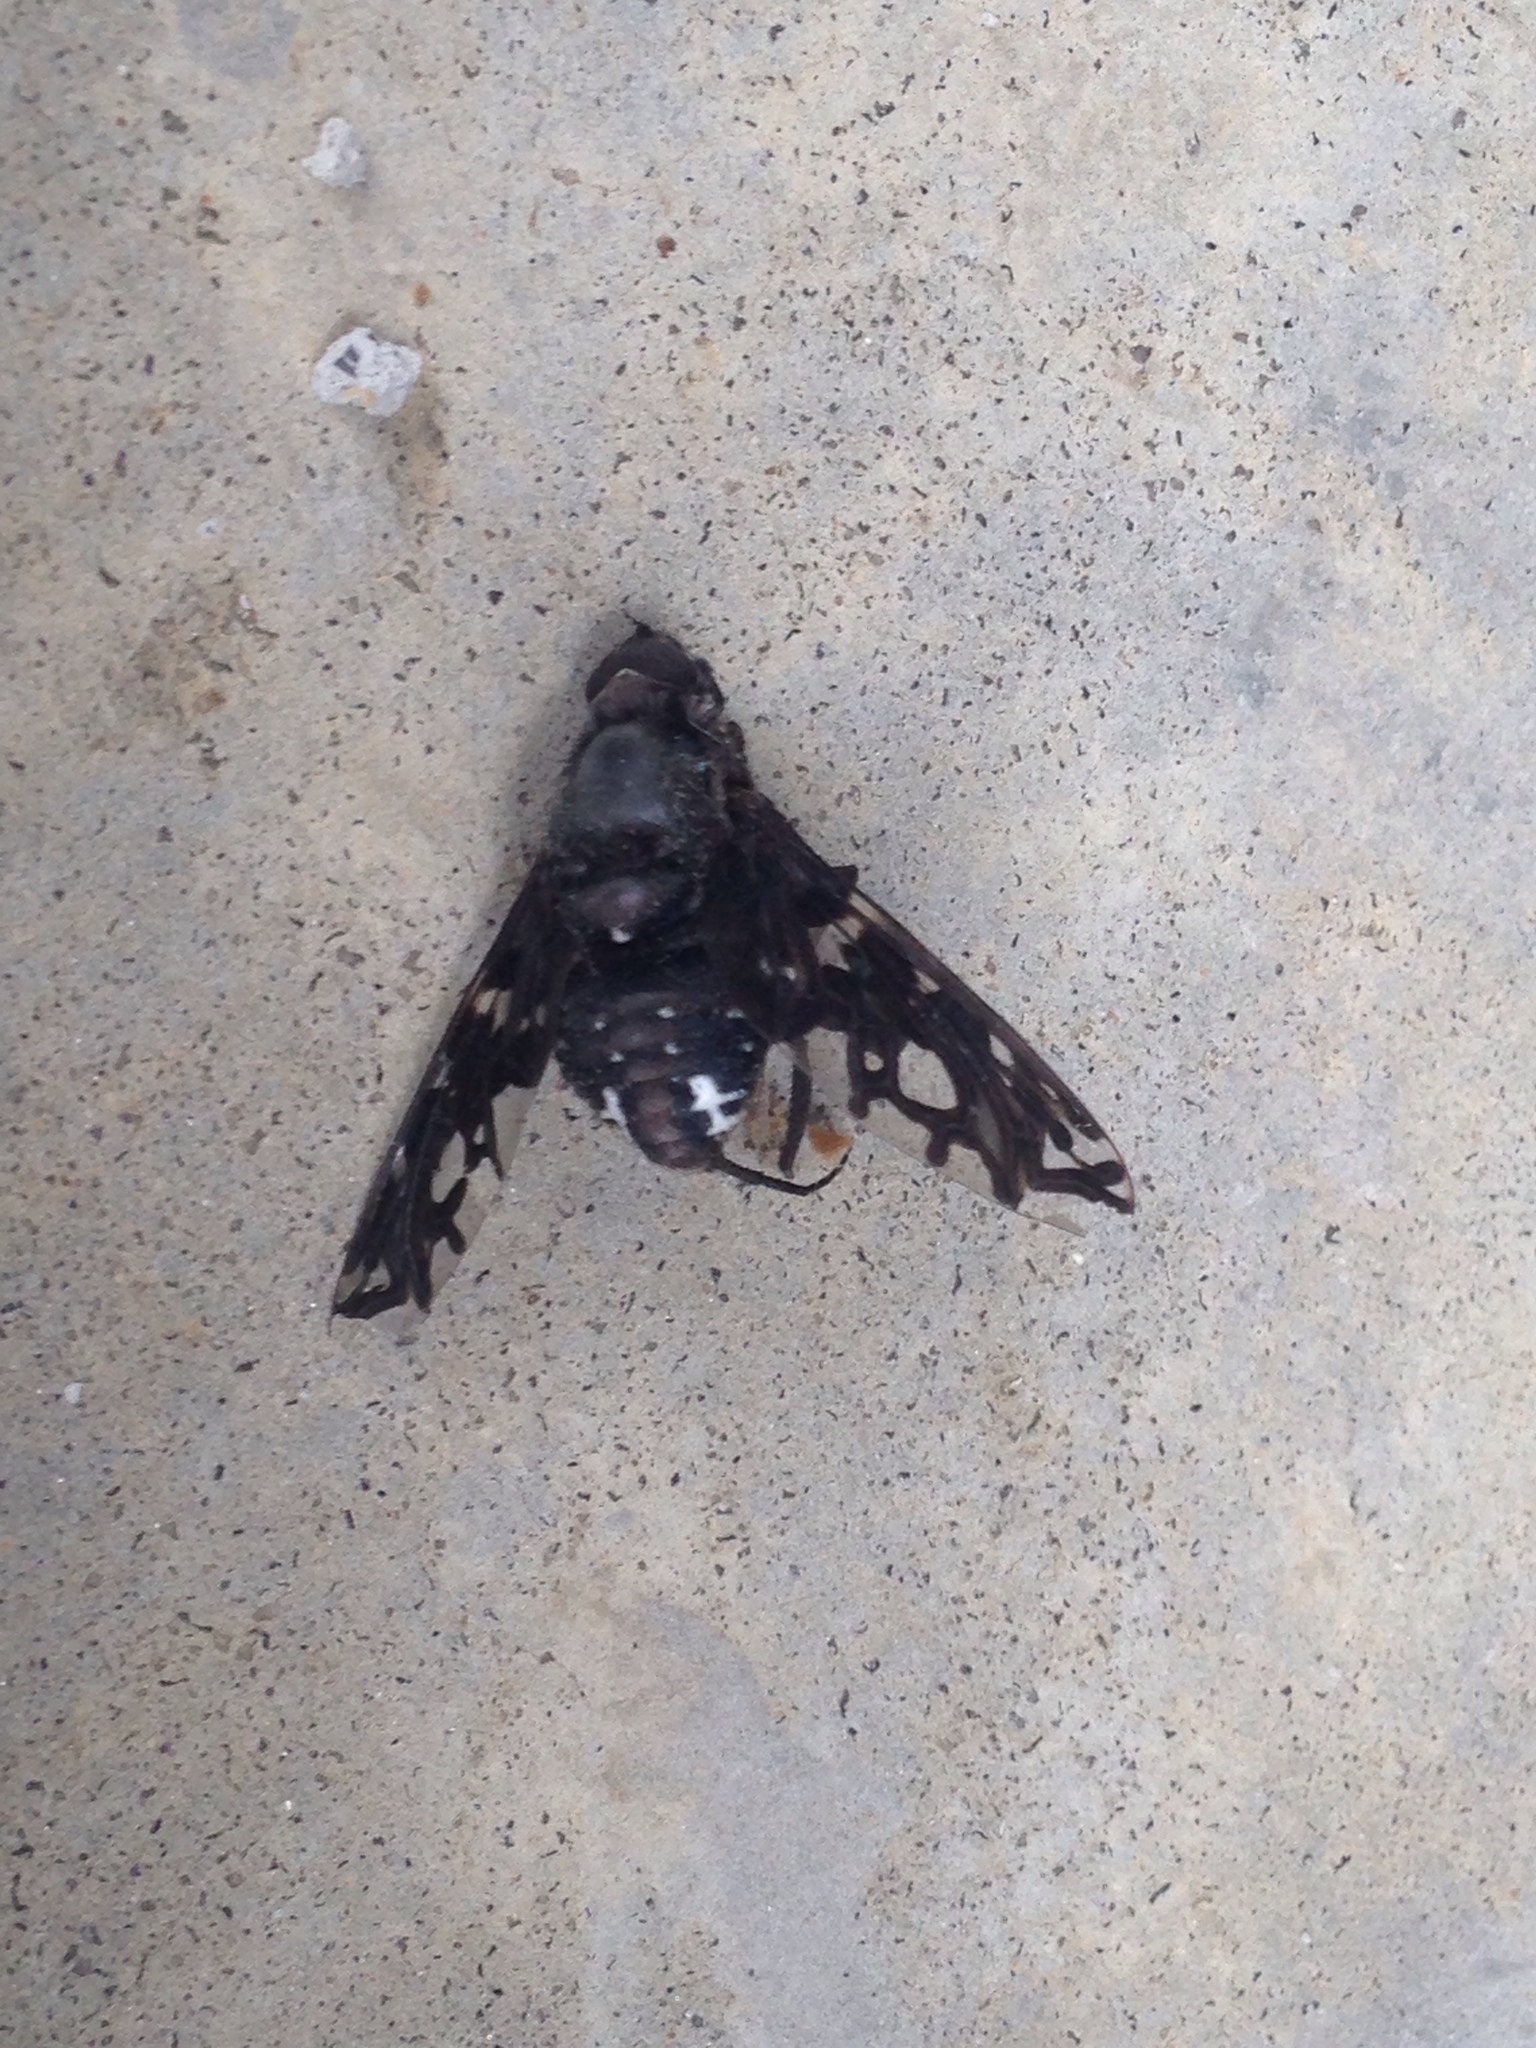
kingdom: Animalia
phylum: Arthropoda
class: Insecta
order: Diptera
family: Bombyliidae
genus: Xenox
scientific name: Xenox tigrinus
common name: Tiger bee fly
